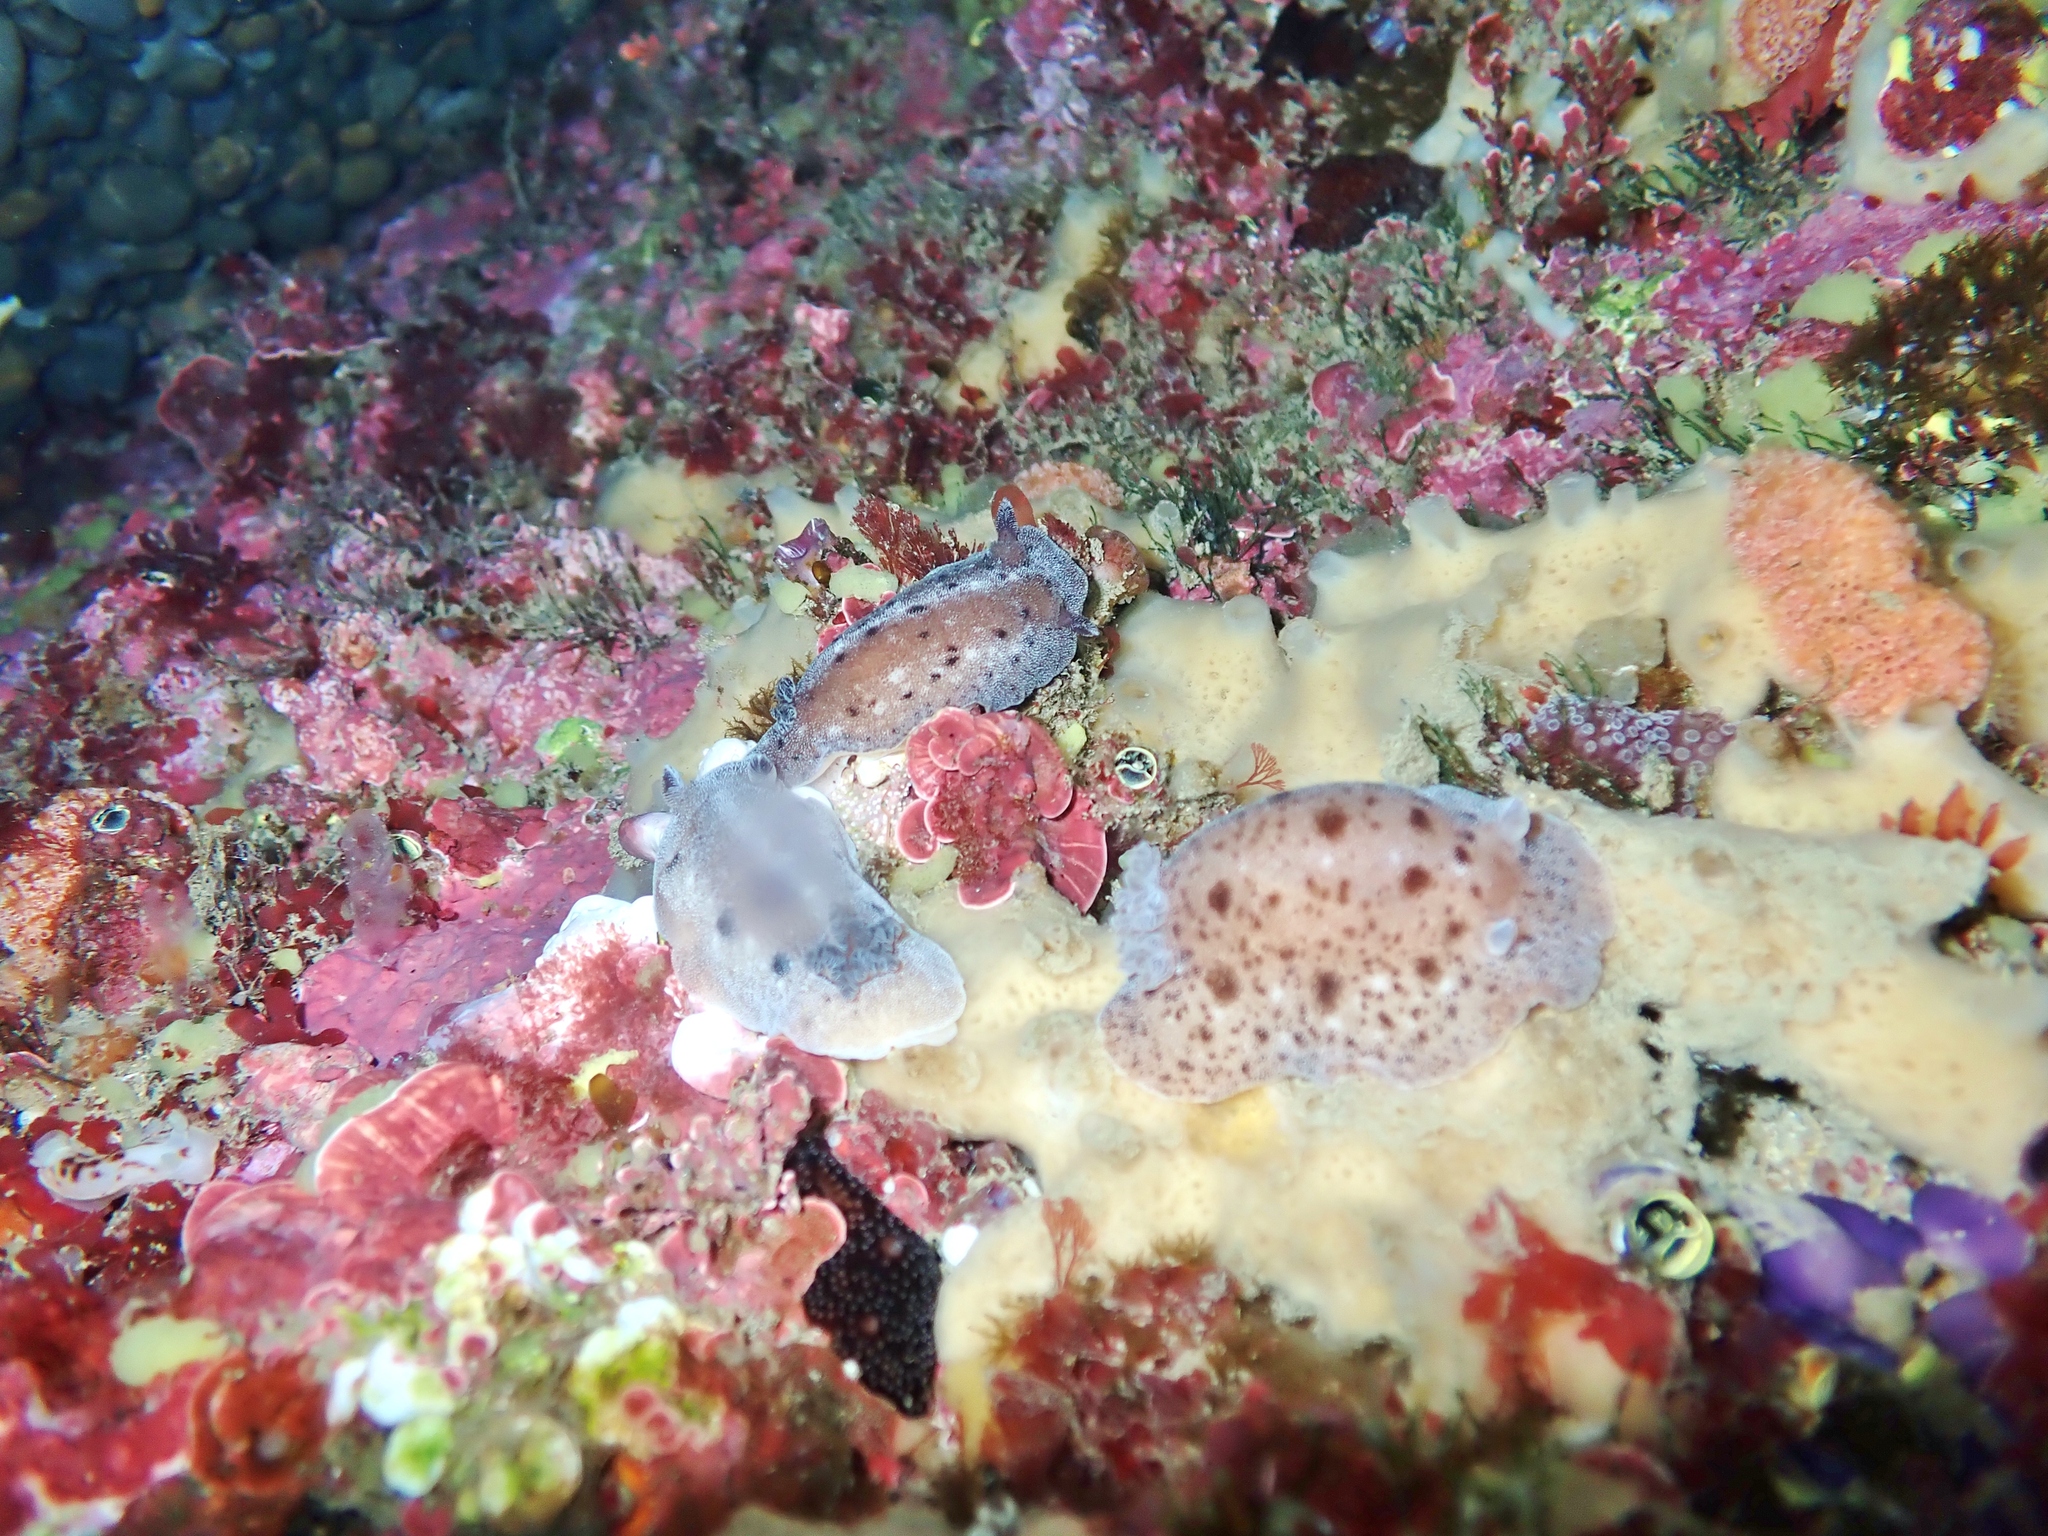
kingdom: Animalia
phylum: Mollusca
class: Gastropoda
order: Nudibranchia
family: Discodorididae
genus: Alloiodoris
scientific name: Alloiodoris lanuginata
